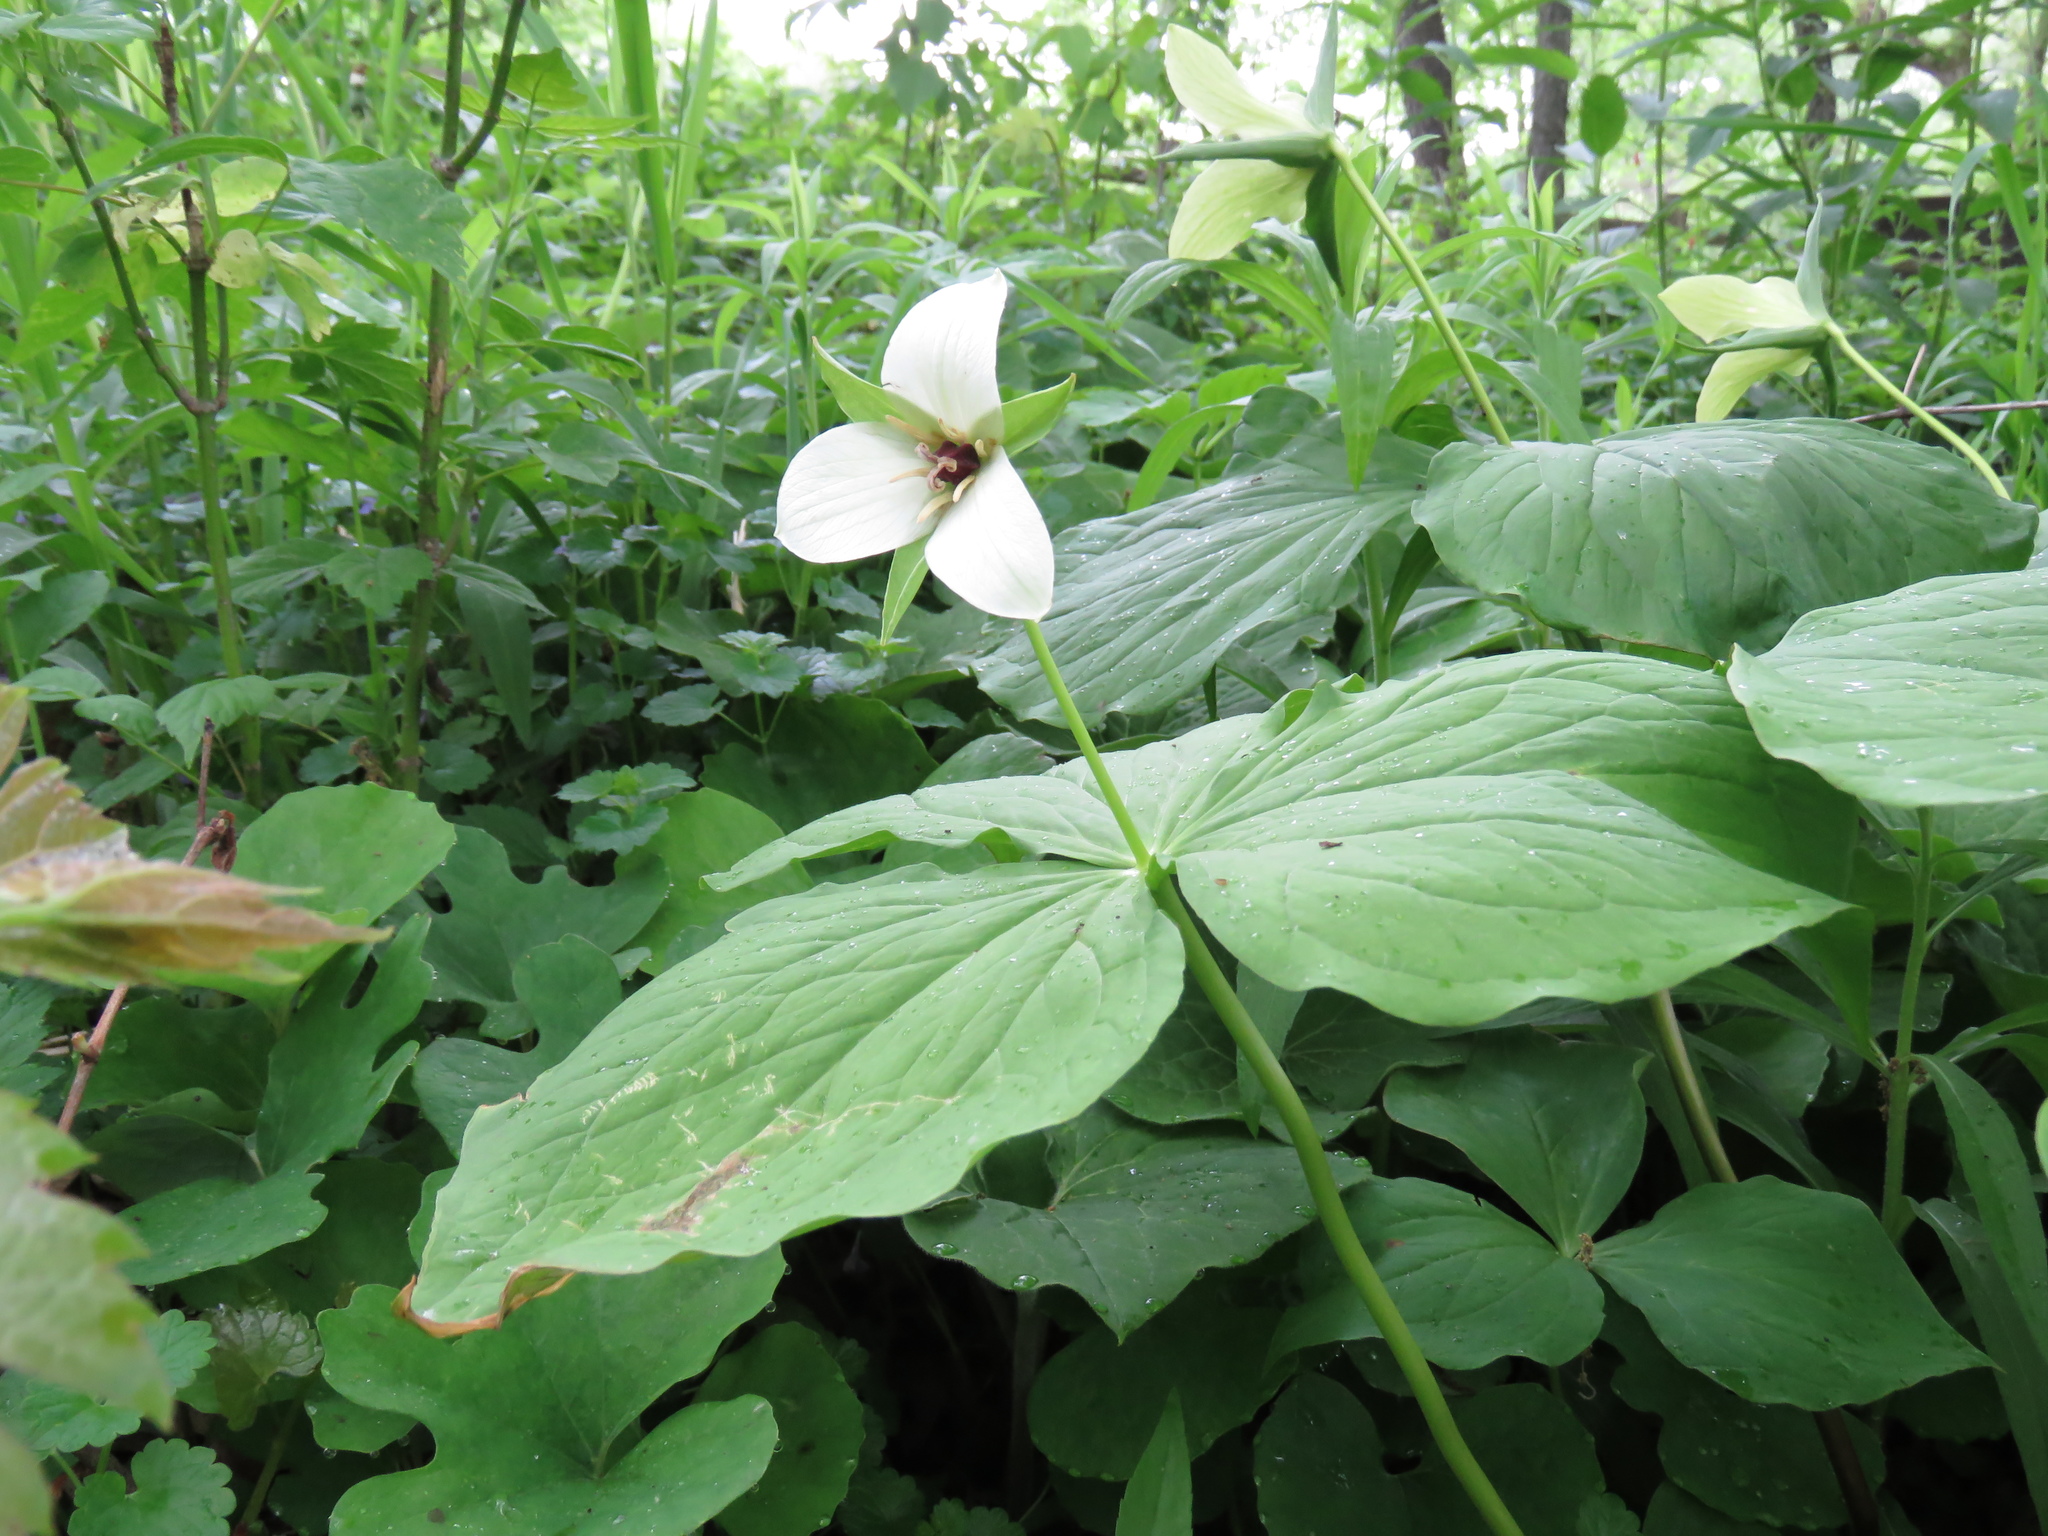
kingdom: Plantae
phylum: Tracheophyta
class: Liliopsida
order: Liliales
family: Melanthiaceae
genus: Trillium
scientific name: Trillium erectum
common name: Purple trillium
